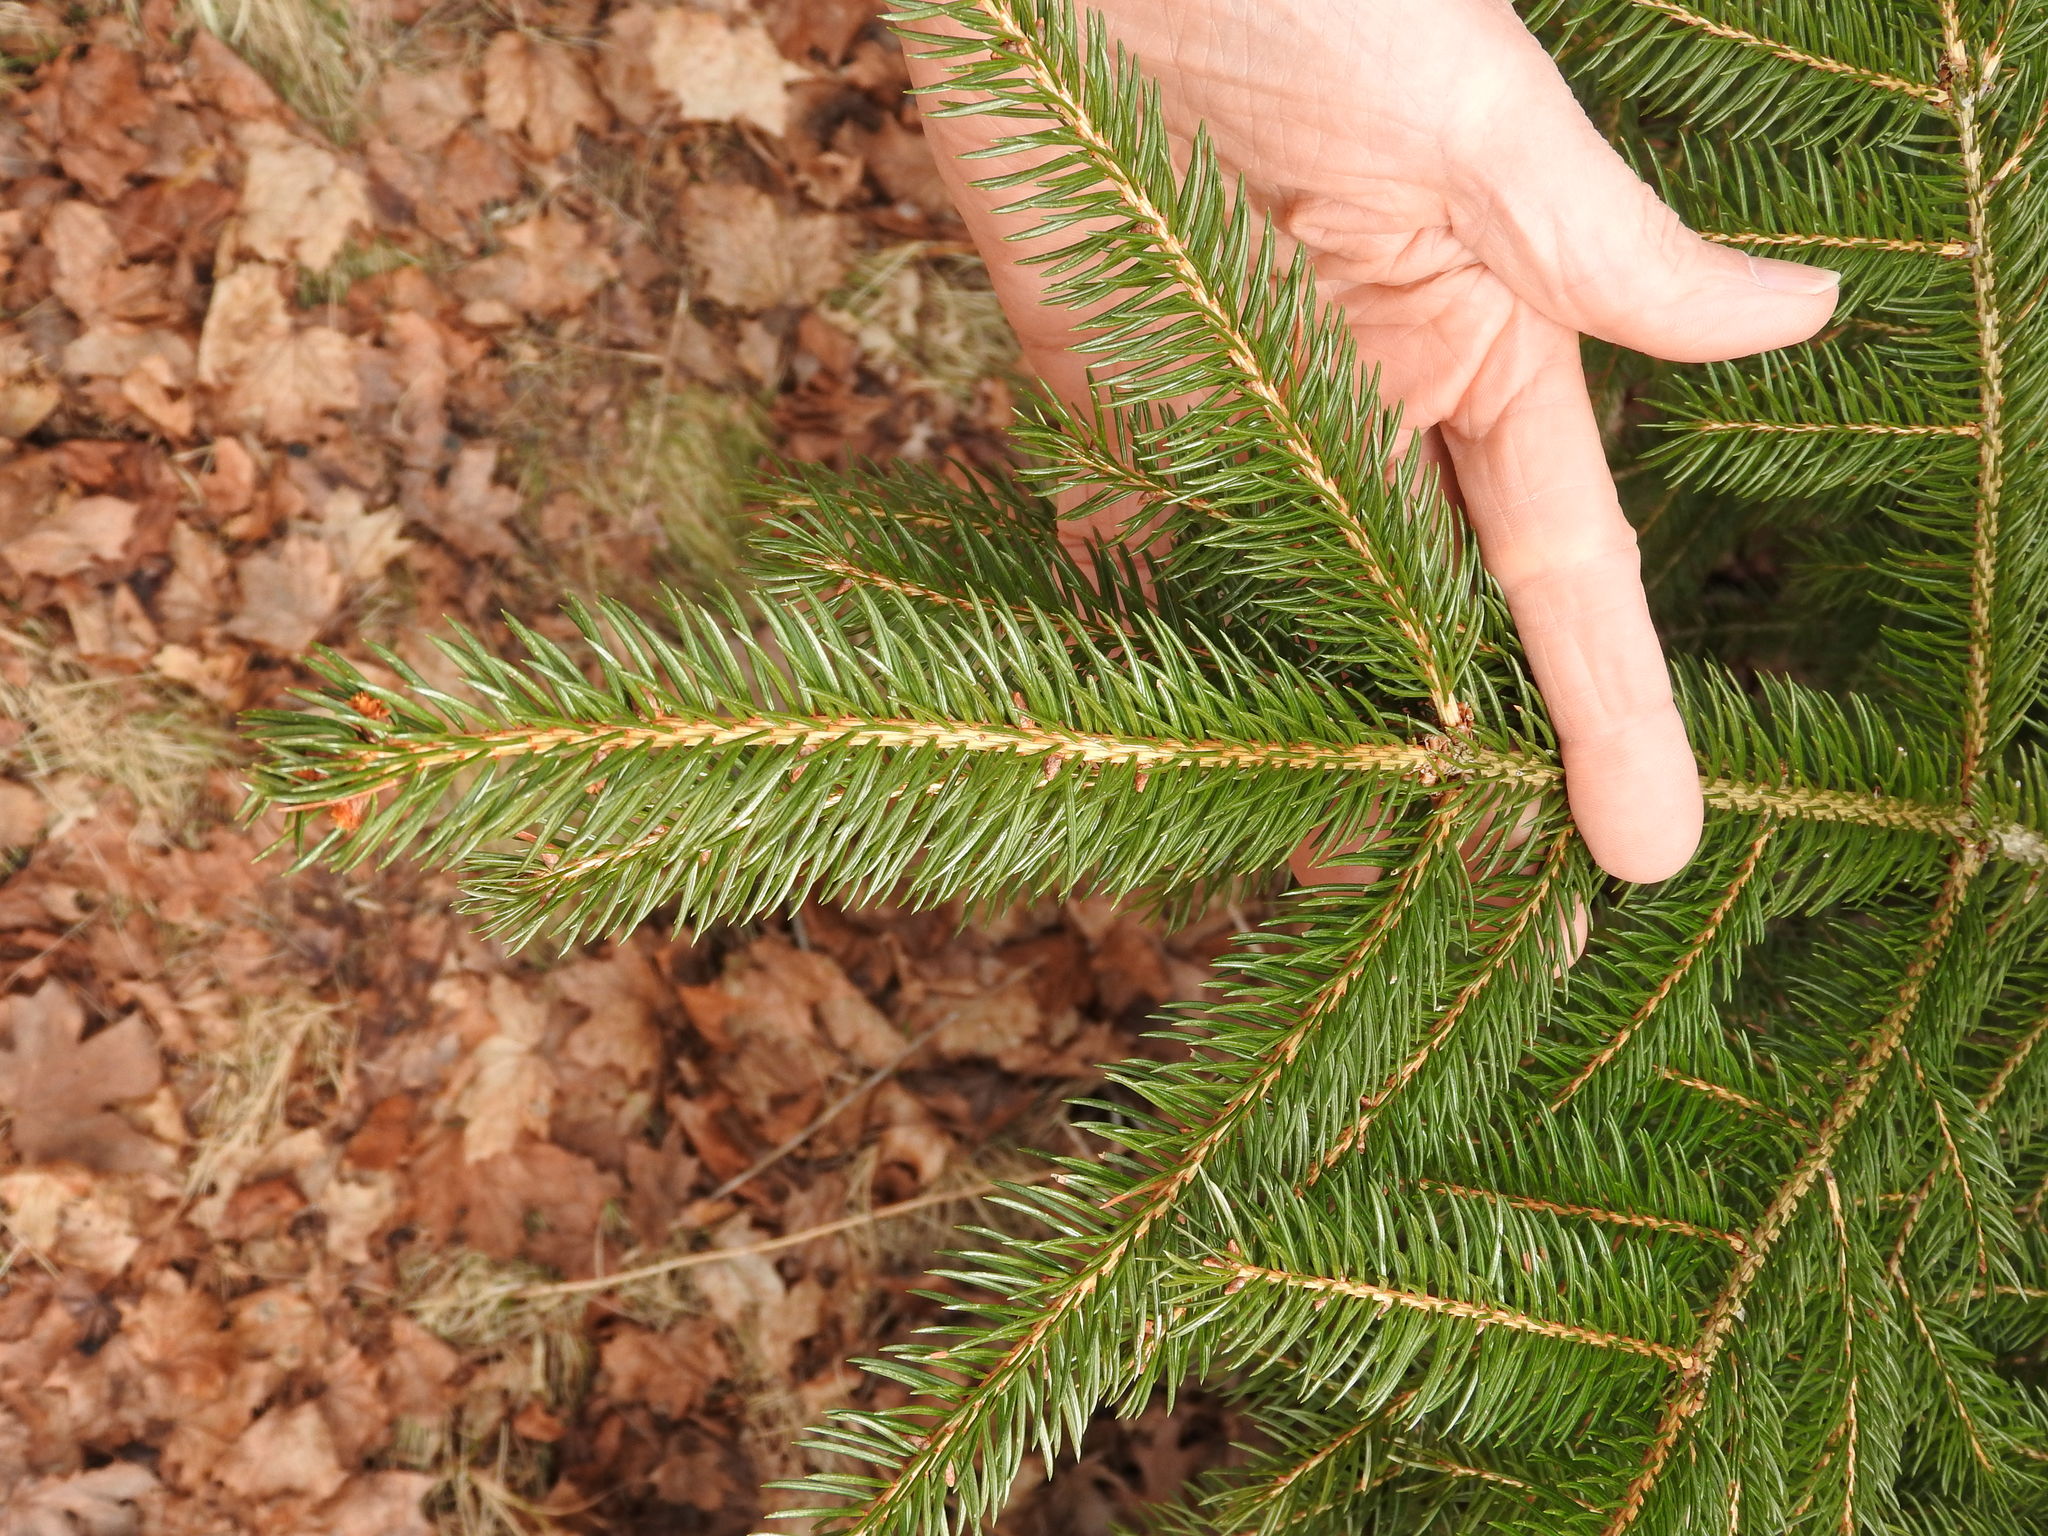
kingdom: Plantae
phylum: Tracheophyta
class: Pinopsida
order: Pinales
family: Pinaceae
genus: Picea
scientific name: Picea abies
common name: Norway spruce
